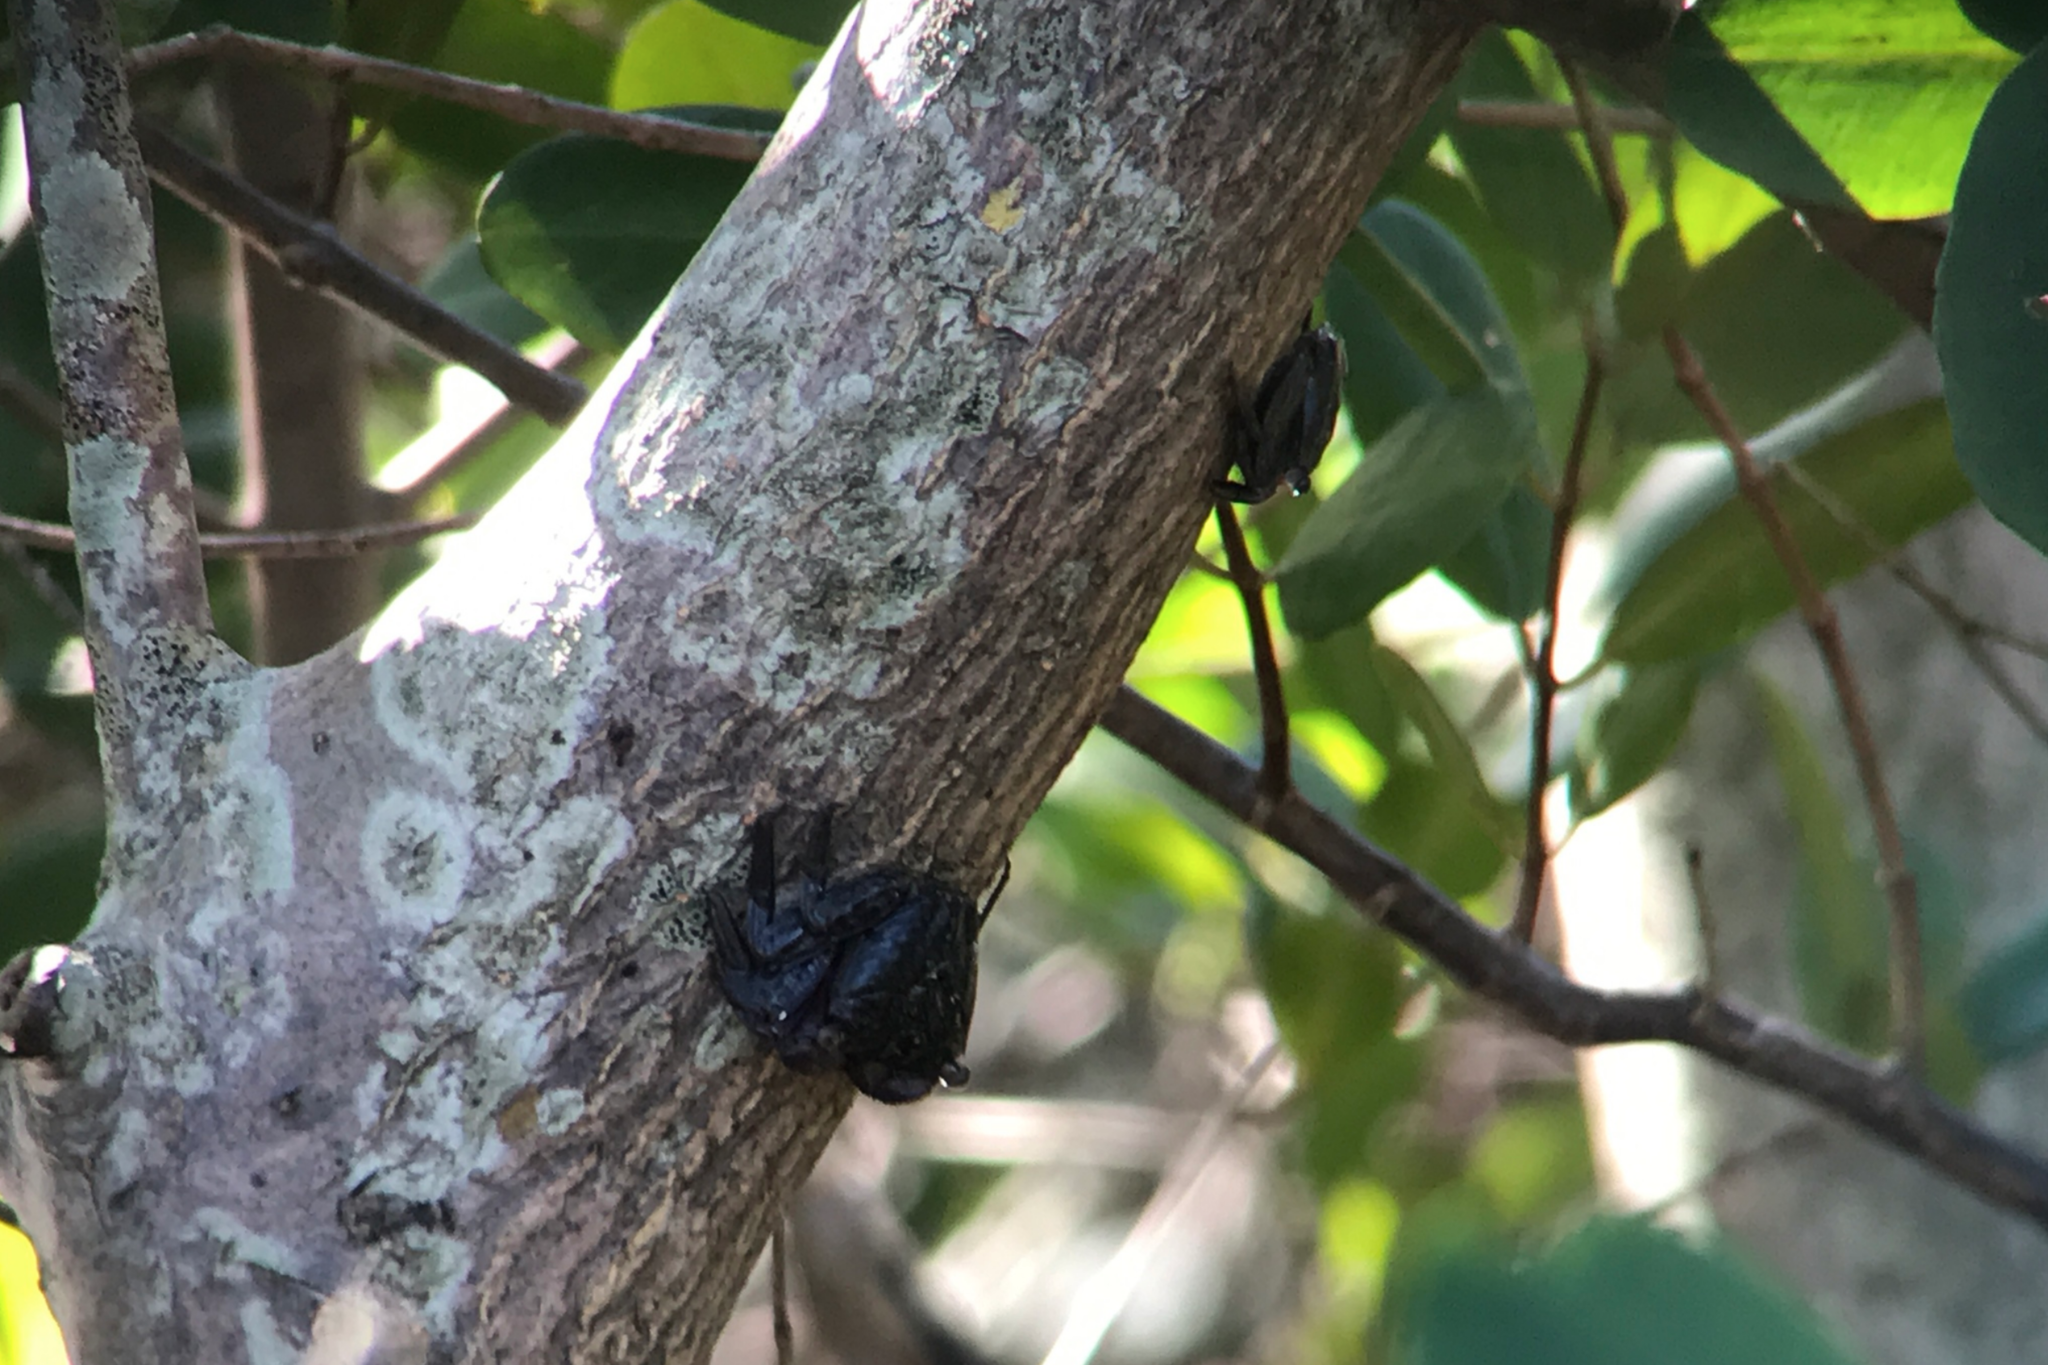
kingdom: Animalia
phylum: Arthropoda
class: Malacostraca
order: Decapoda
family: Sesarmidae
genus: Aratus
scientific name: Aratus pisonii
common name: Mangrove crab
